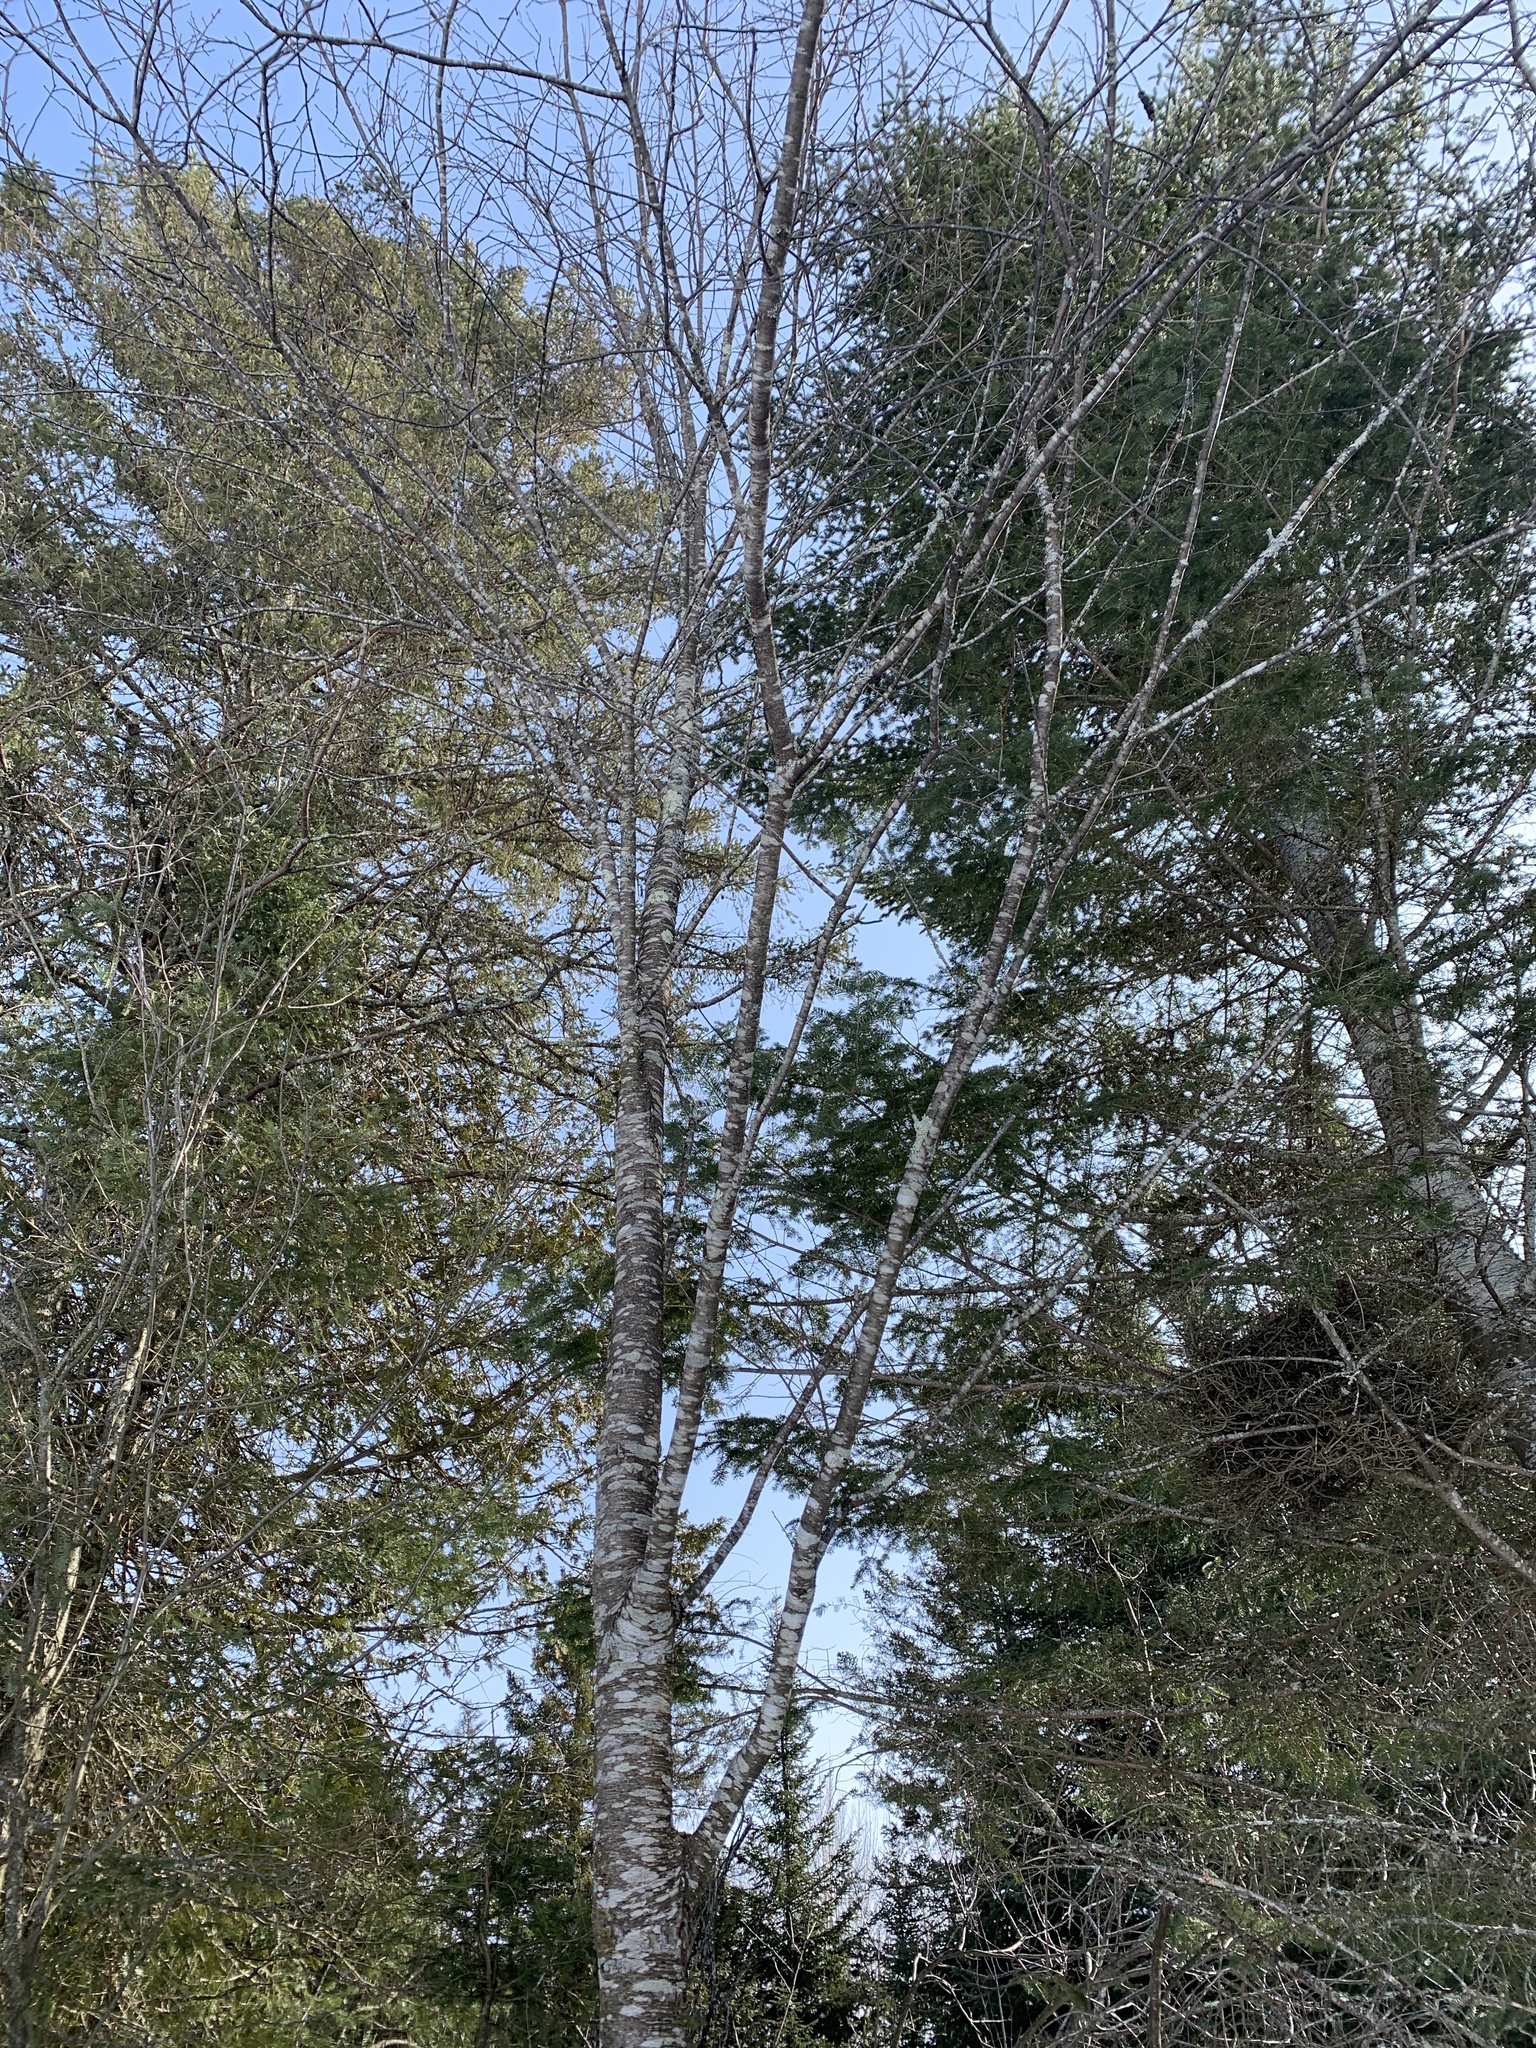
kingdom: Plantae
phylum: Tracheophyta
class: Magnoliopsida
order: Rosales
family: Rosaceae
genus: Prunus
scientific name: Prunus serotina
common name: Black cherry
